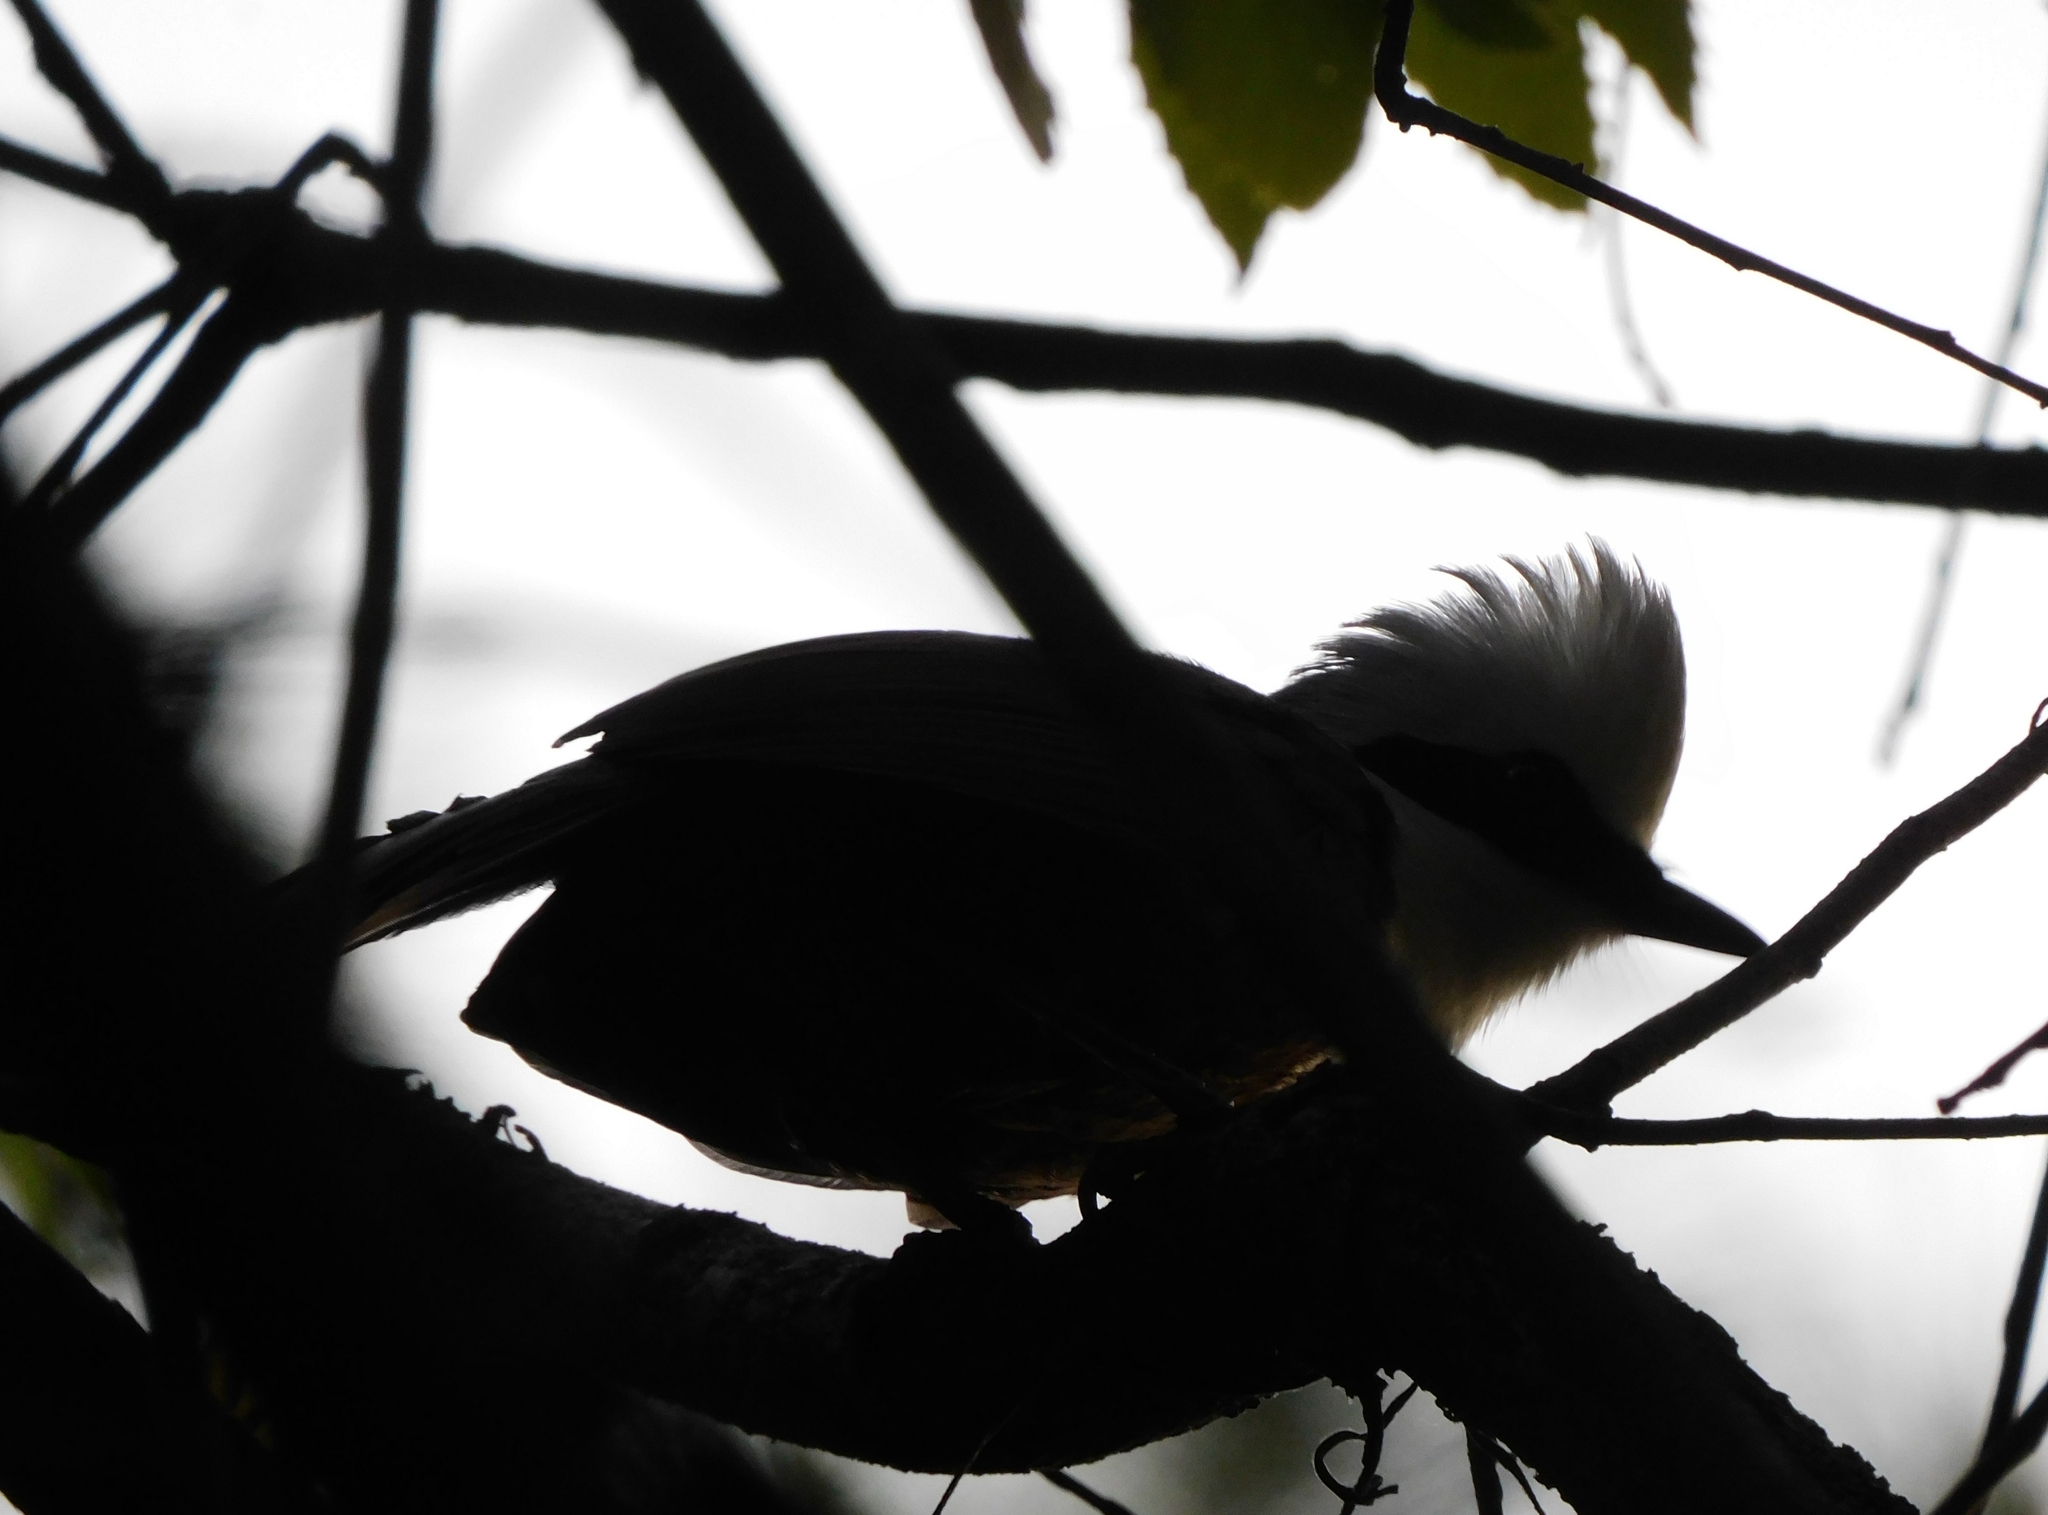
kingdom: Animalia
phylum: Chordata
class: Aves
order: Passeriformes
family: Leiothrichidae
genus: Garrulax
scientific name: Garrulax leucolophus
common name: White-crested laughingthrush
